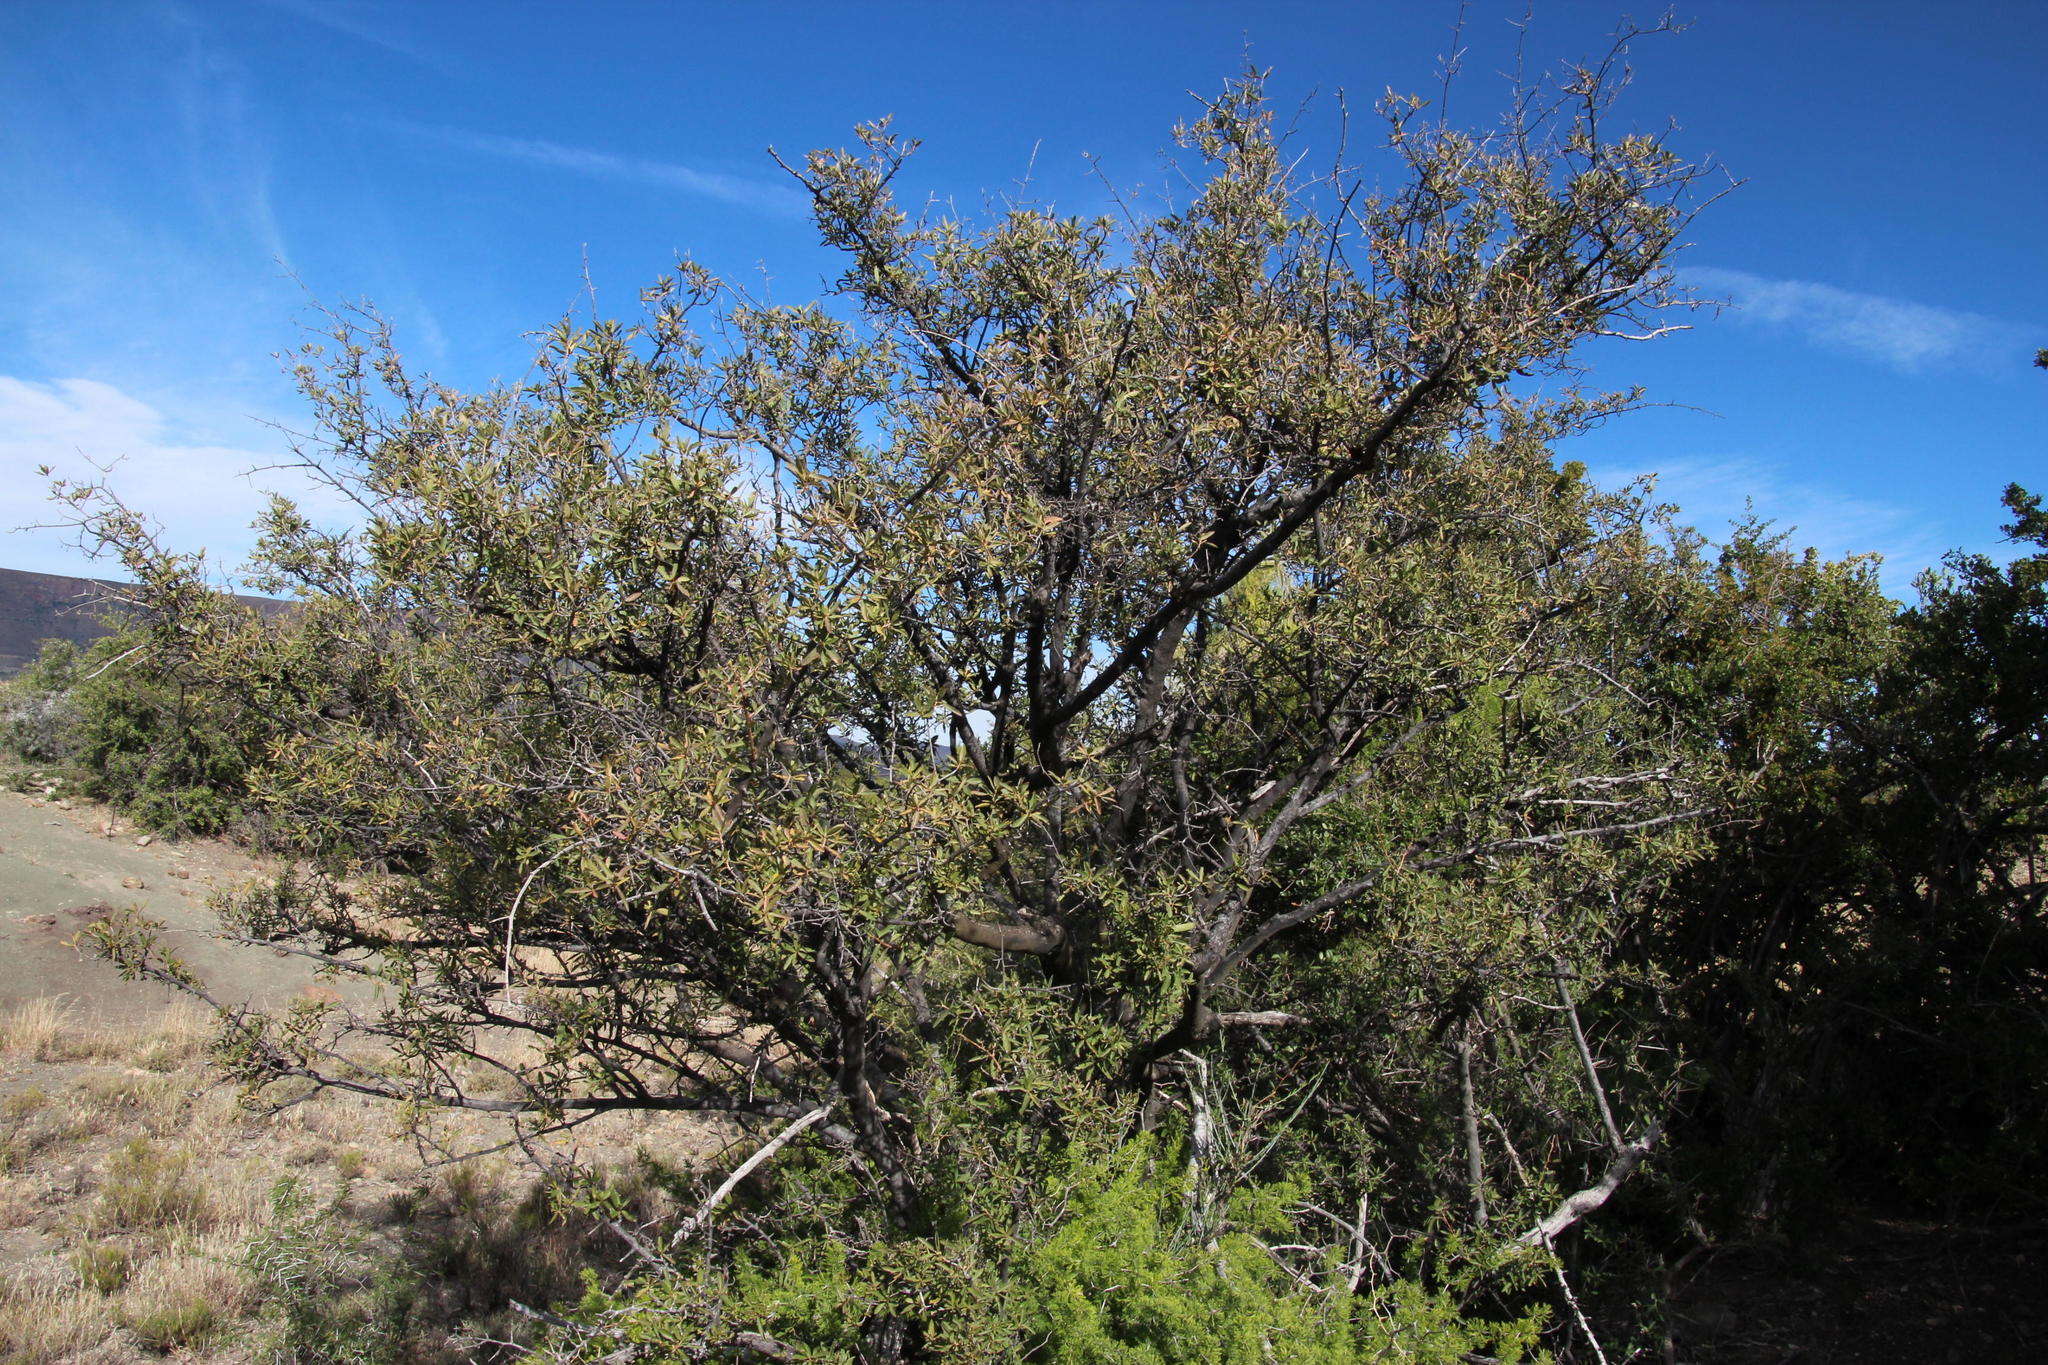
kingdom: Plantae
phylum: Tracheophyta
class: Liliopsida
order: Asparagales
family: Asparagaceae
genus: Asparagus
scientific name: Asparagus burchellii
